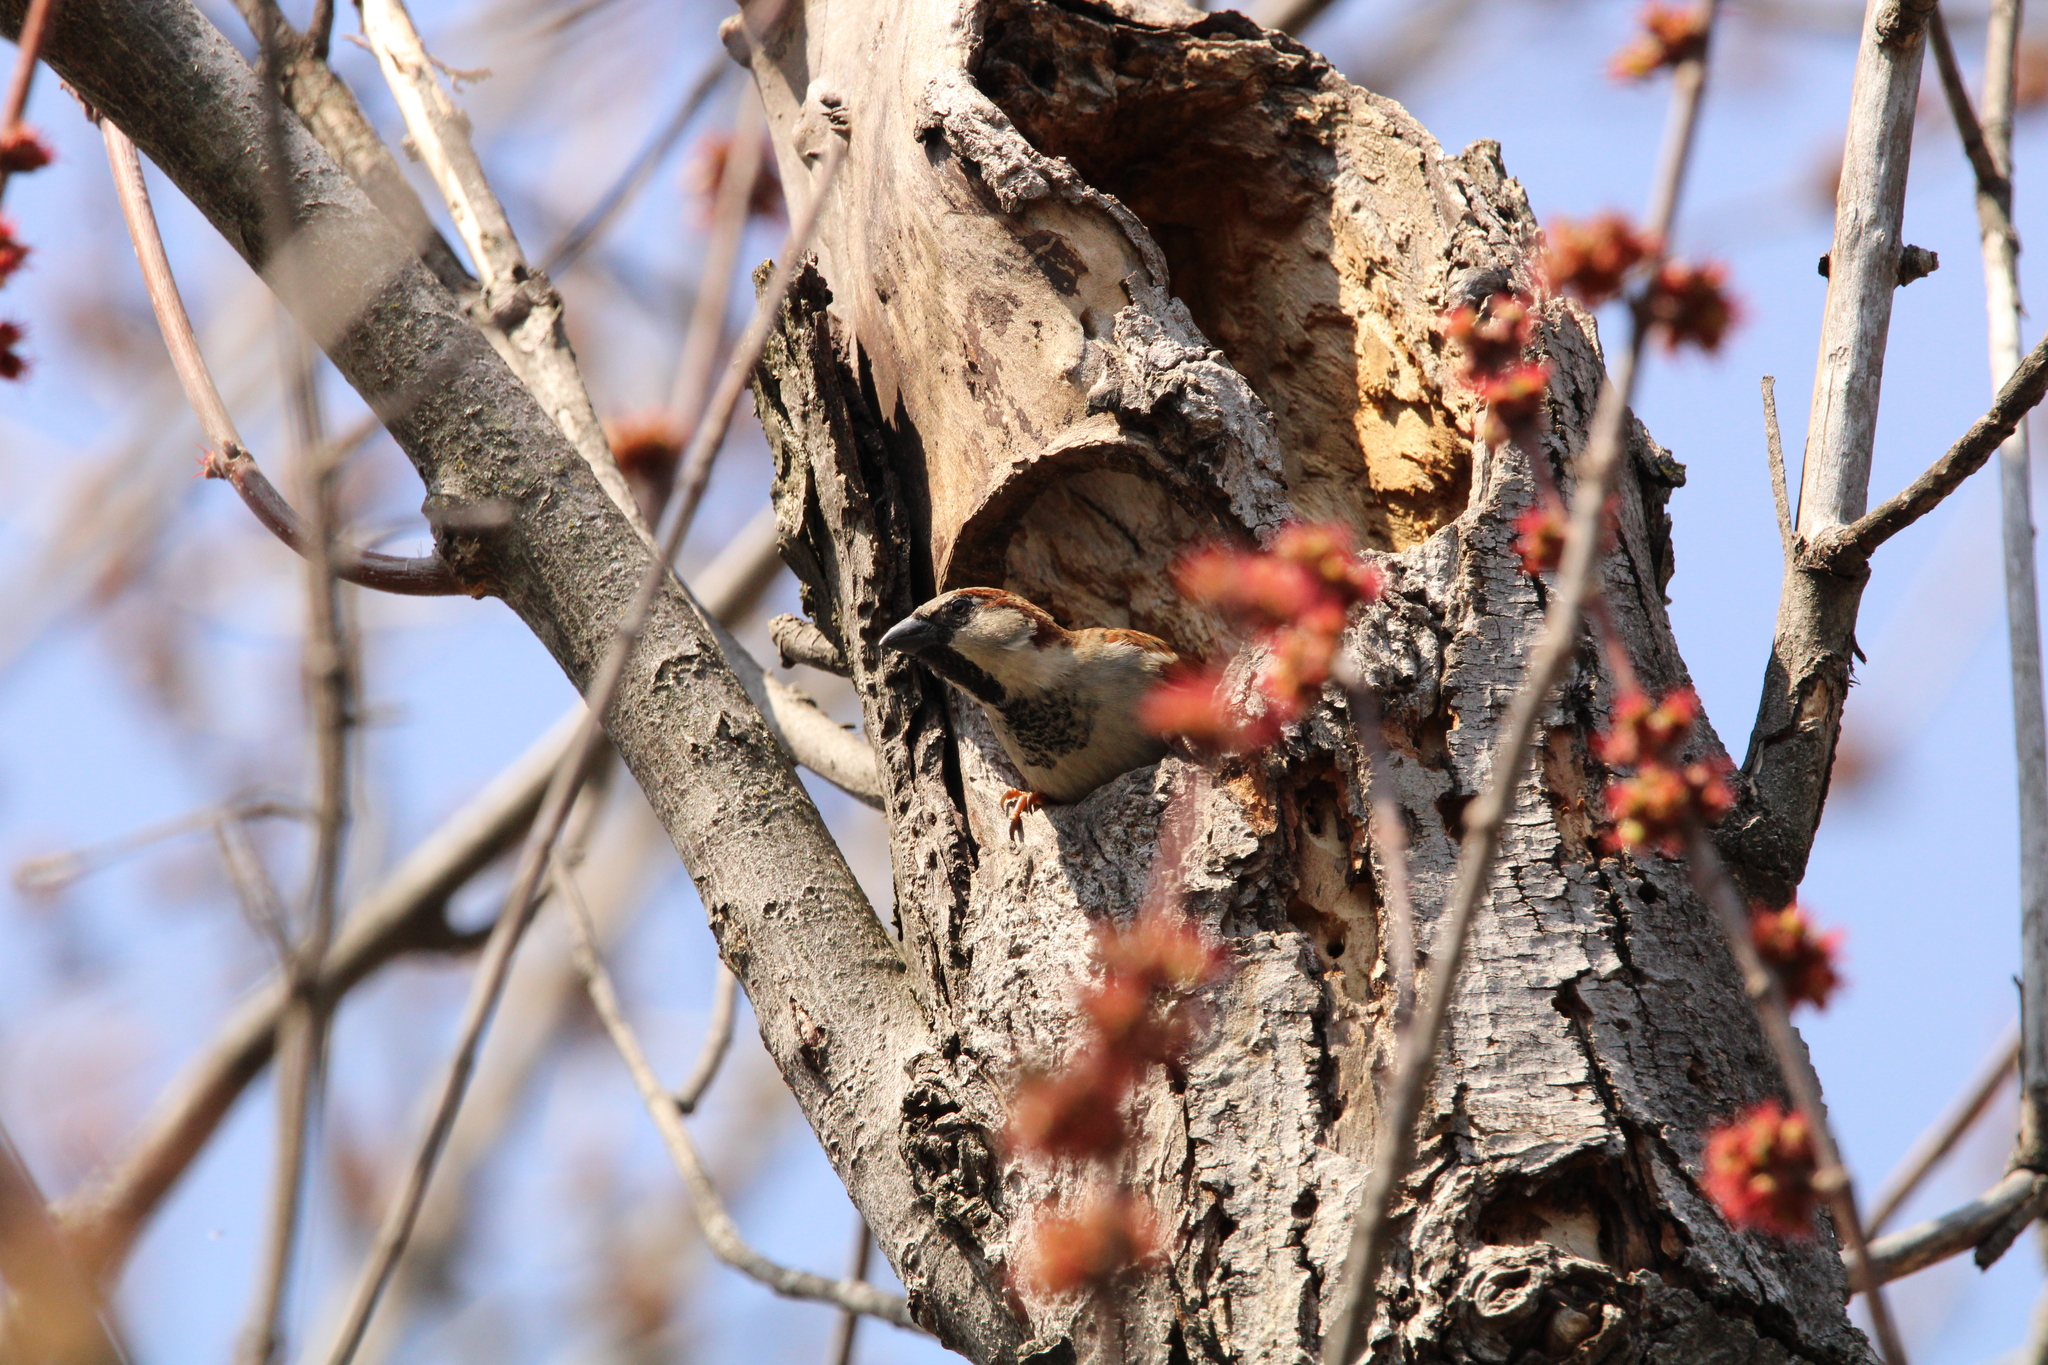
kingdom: Animalia
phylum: Chordata
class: Aves
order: Passeriformes
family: Passeridae
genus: Passer
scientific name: Passer domesticus
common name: House sparrow
